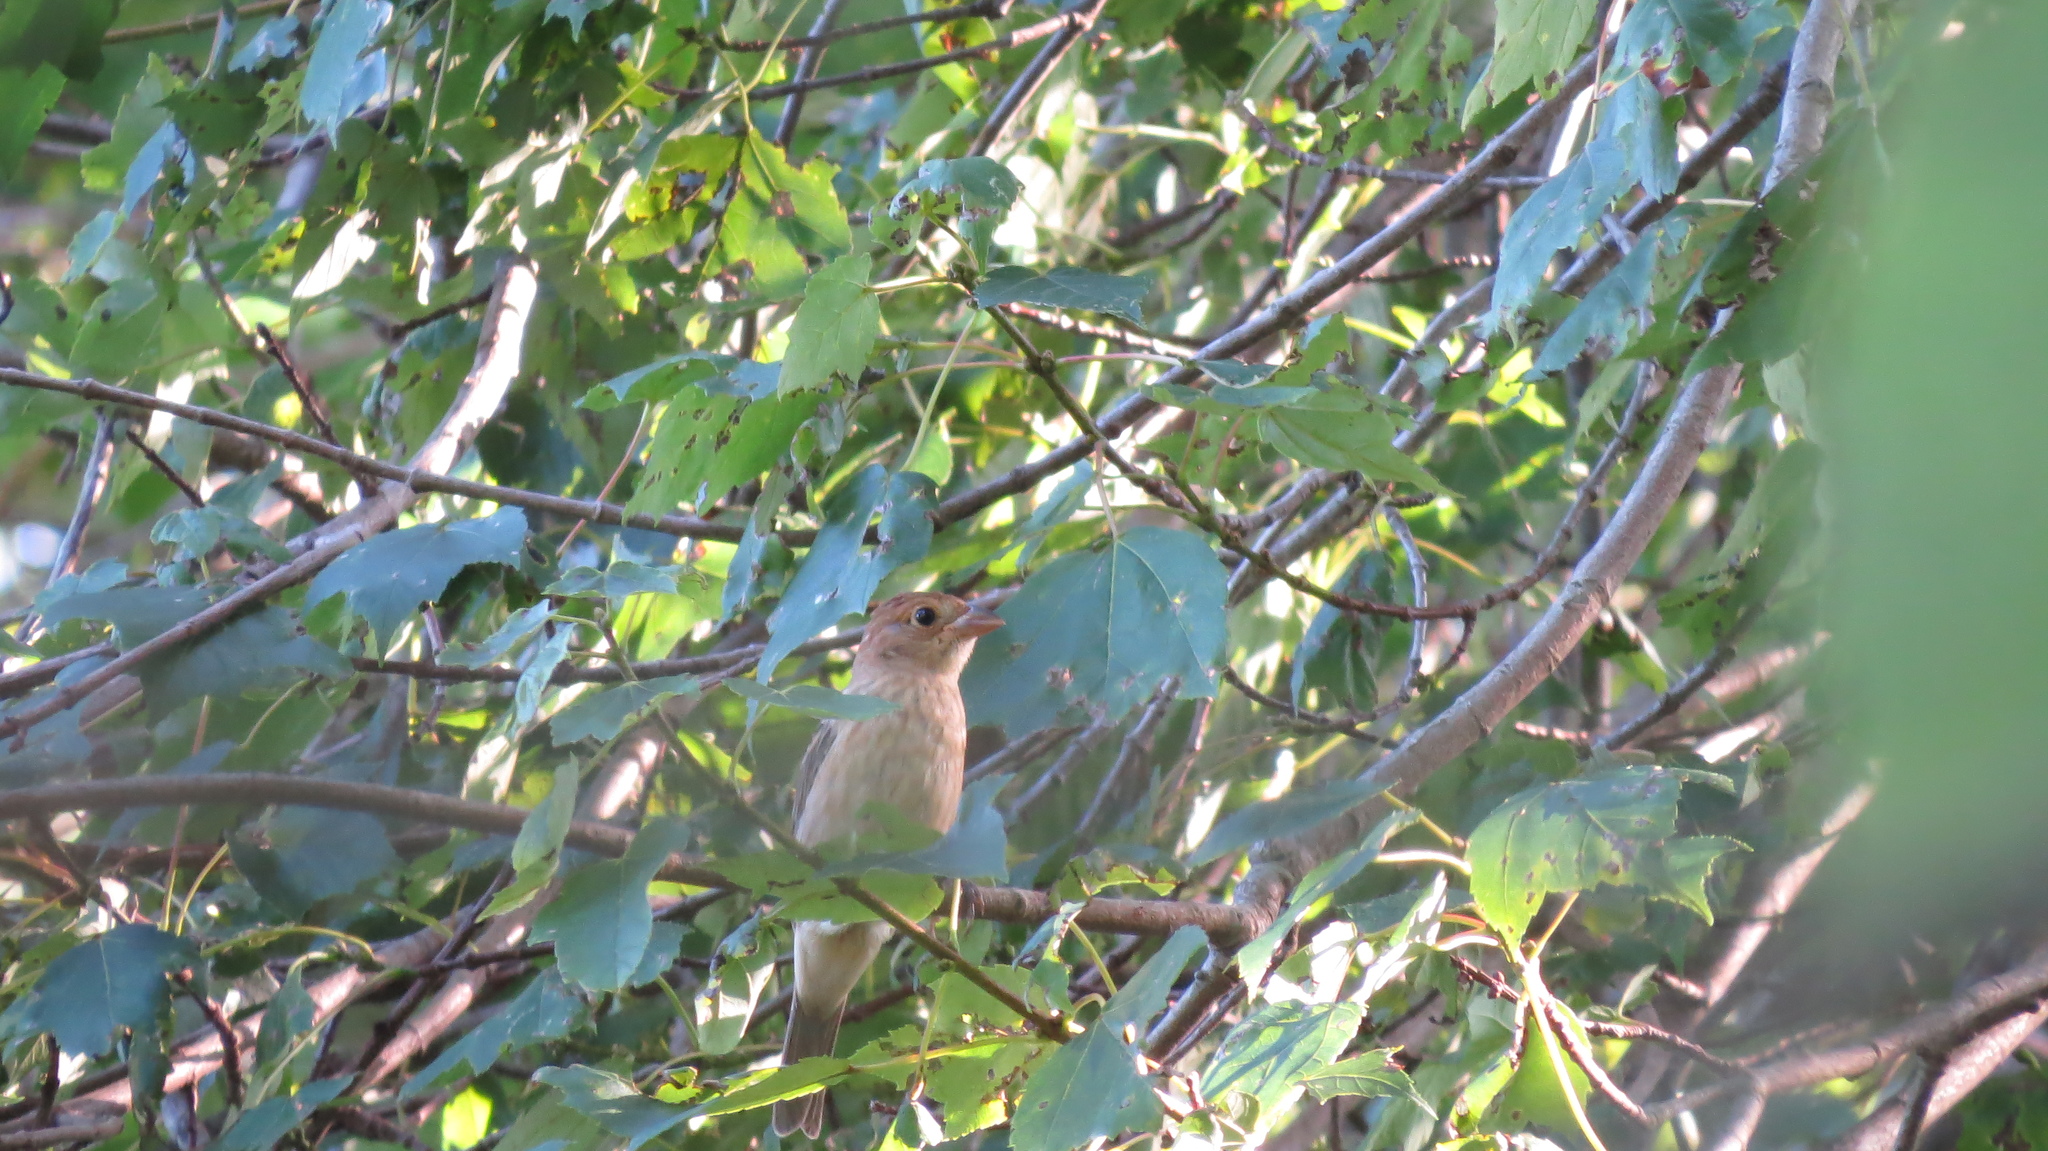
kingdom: Animalia
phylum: Chordata
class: Aves
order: Passeriformes
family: Cardinalidae
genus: Passerina
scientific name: Passerina cyanea
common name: Indigo bunting
